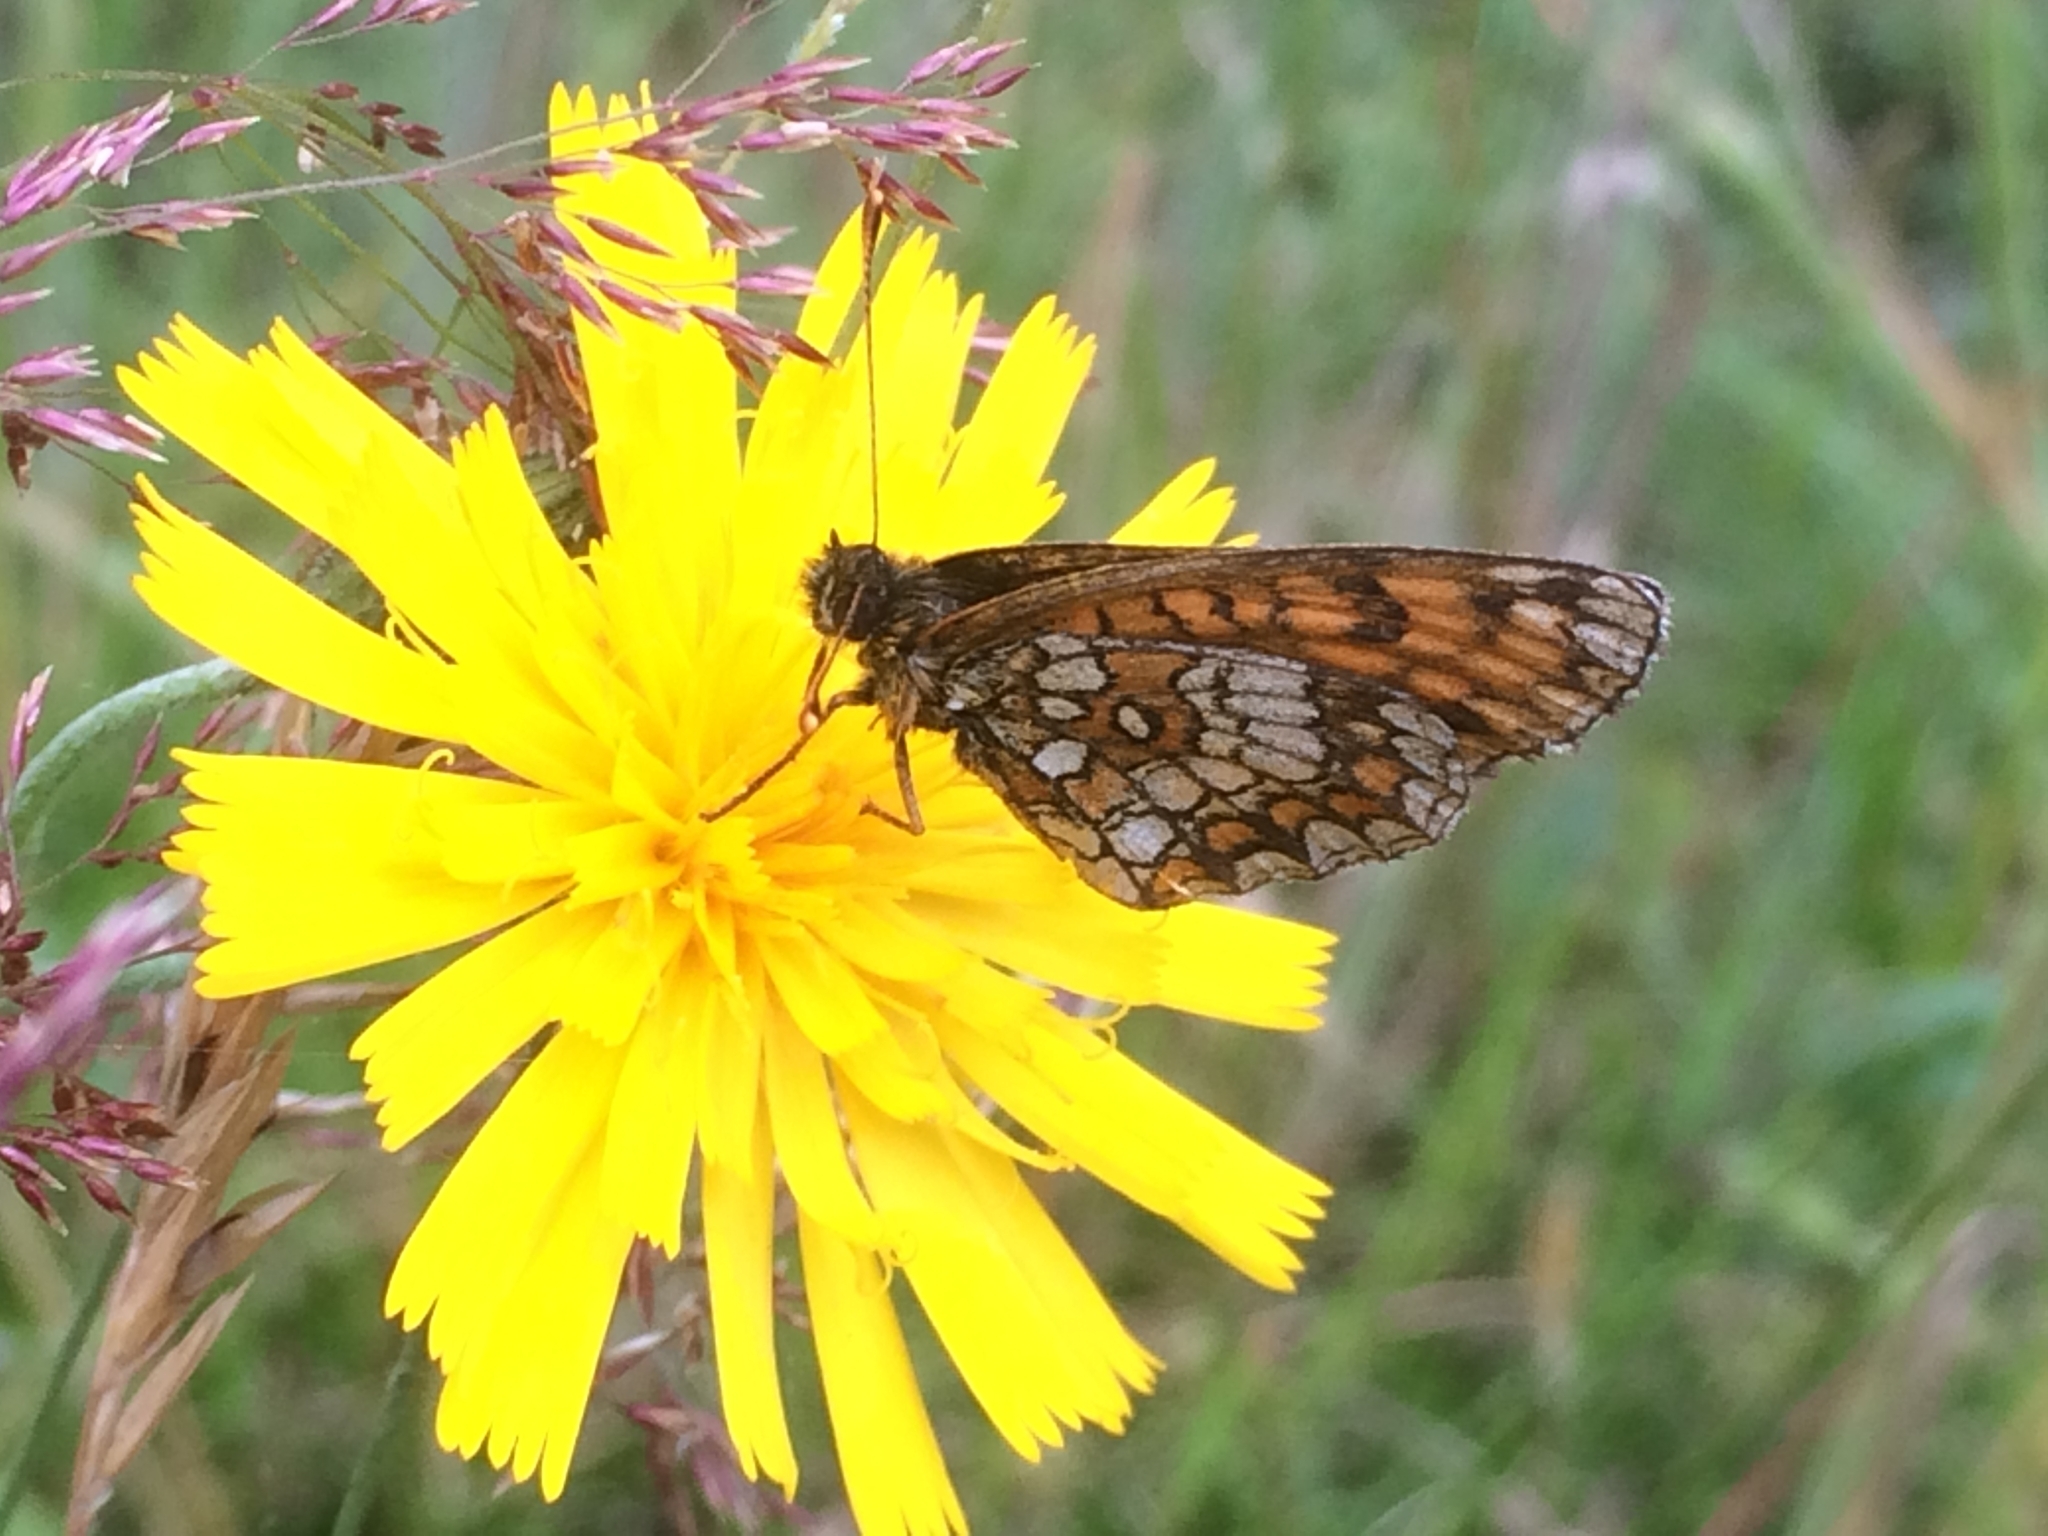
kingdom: Animalia
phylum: Arthropoda
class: Insecta
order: Lepidoptera
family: Nymphalidae
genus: Melitaea
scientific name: Melitaea athalia
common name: Heath fritillary
